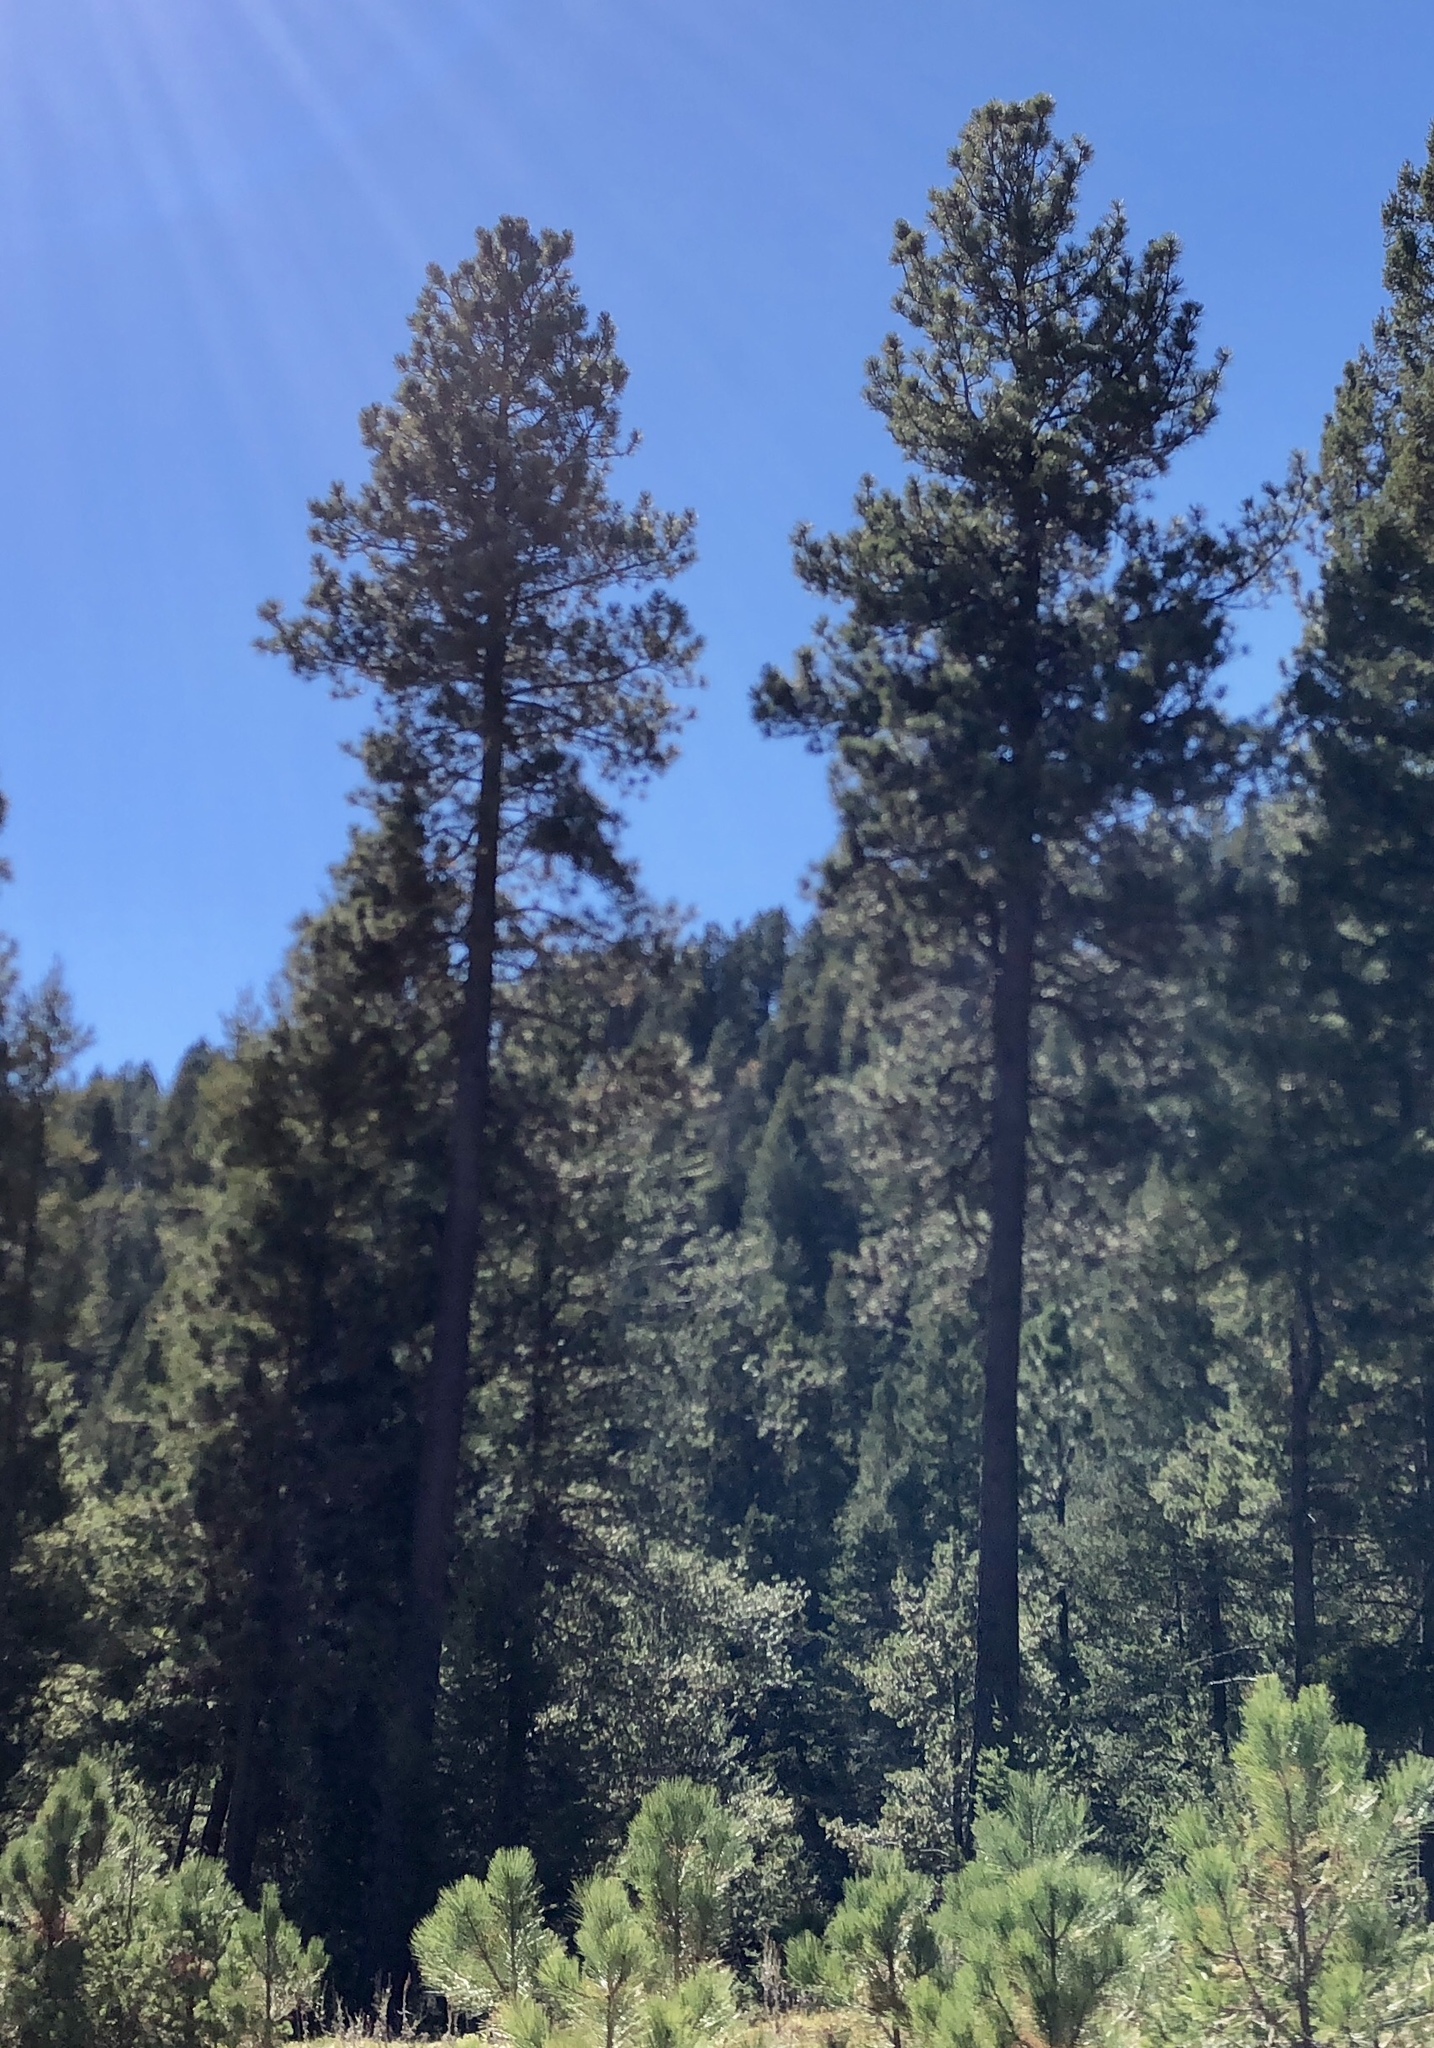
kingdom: Plantae
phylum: Tracheophyta
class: Pinopsida
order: Pinales
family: Pinaceae
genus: Pinus
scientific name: Pinus ponderosa
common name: Western yellow-pine
